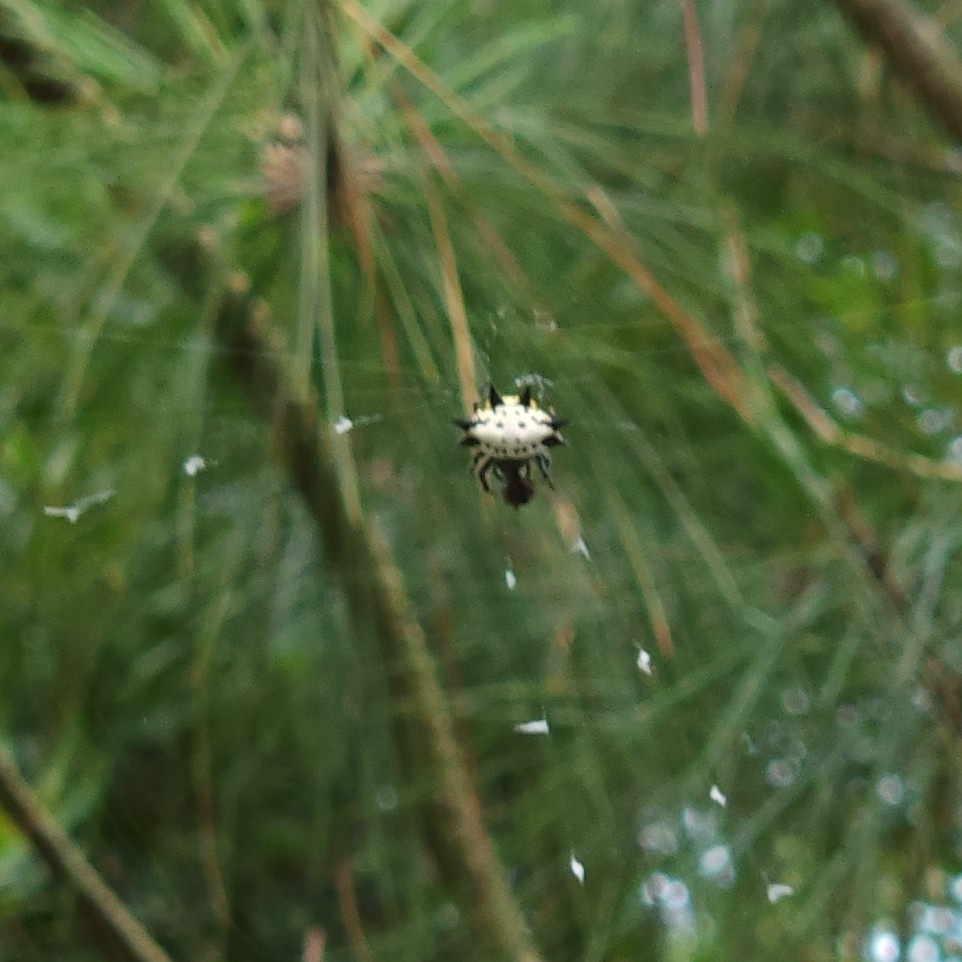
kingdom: Animalia
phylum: Arthropoda
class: Arachnida
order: Araneae
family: Araneidae
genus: Gasteracantha
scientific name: Gasteracantha cancriformis
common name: Orb weavers
